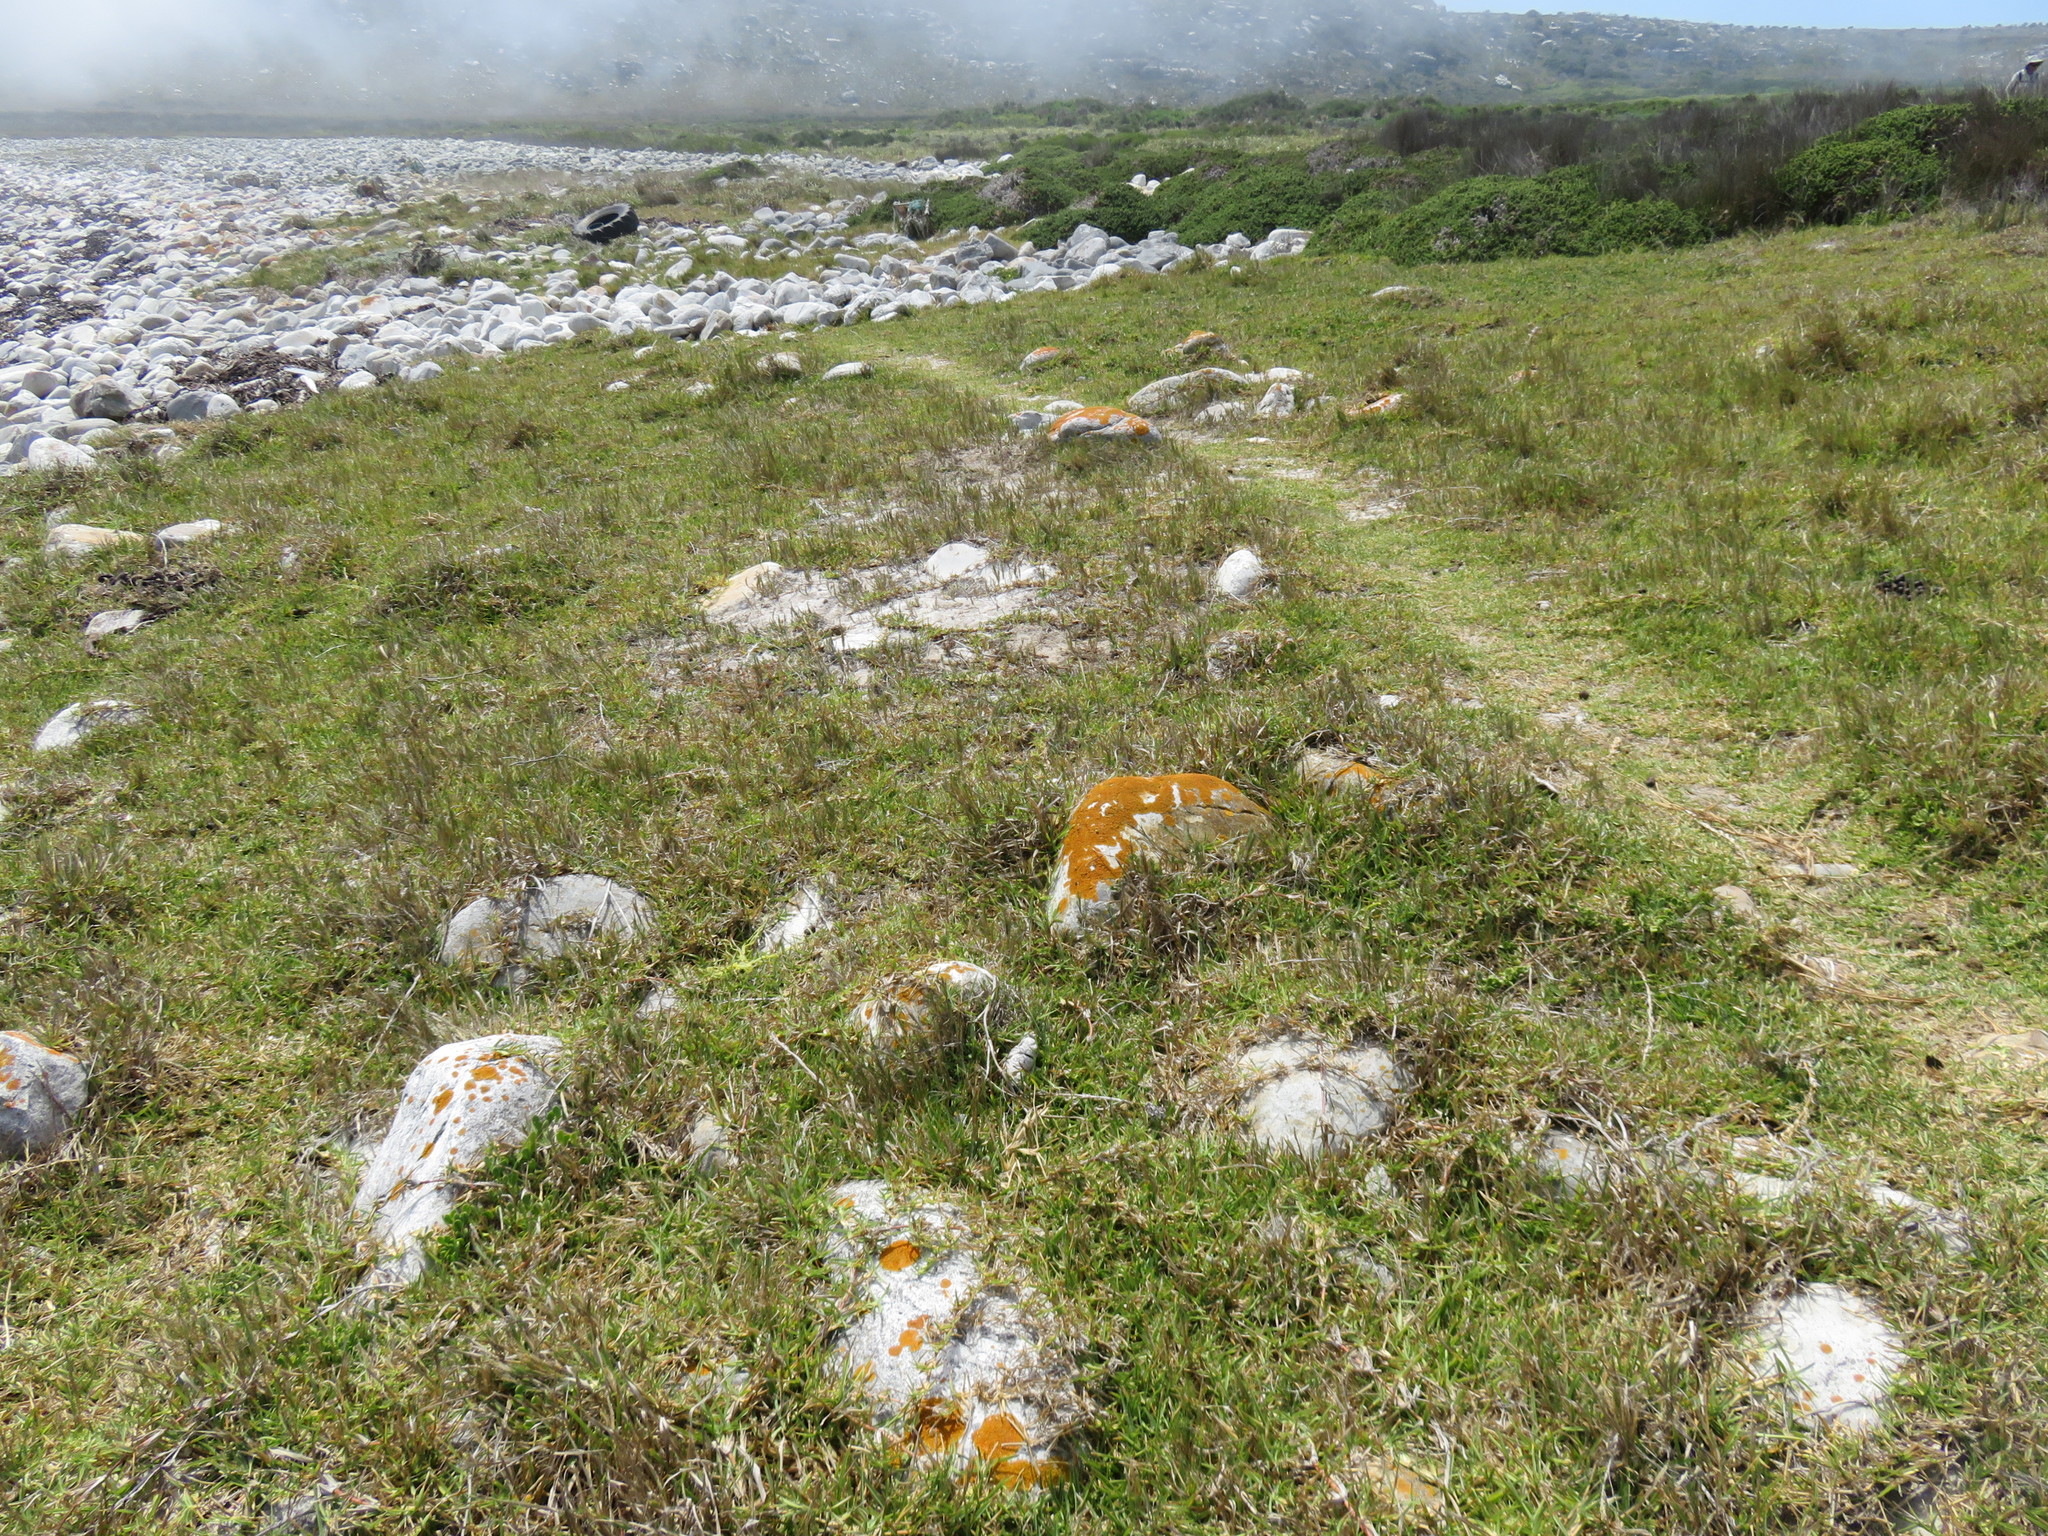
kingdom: Plantae
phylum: Tracheophyta
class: Liliopsida
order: Poales
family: Poaceae
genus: Stenotaphrum
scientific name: Stenotaphrum secundatum
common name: St. augustine grass
